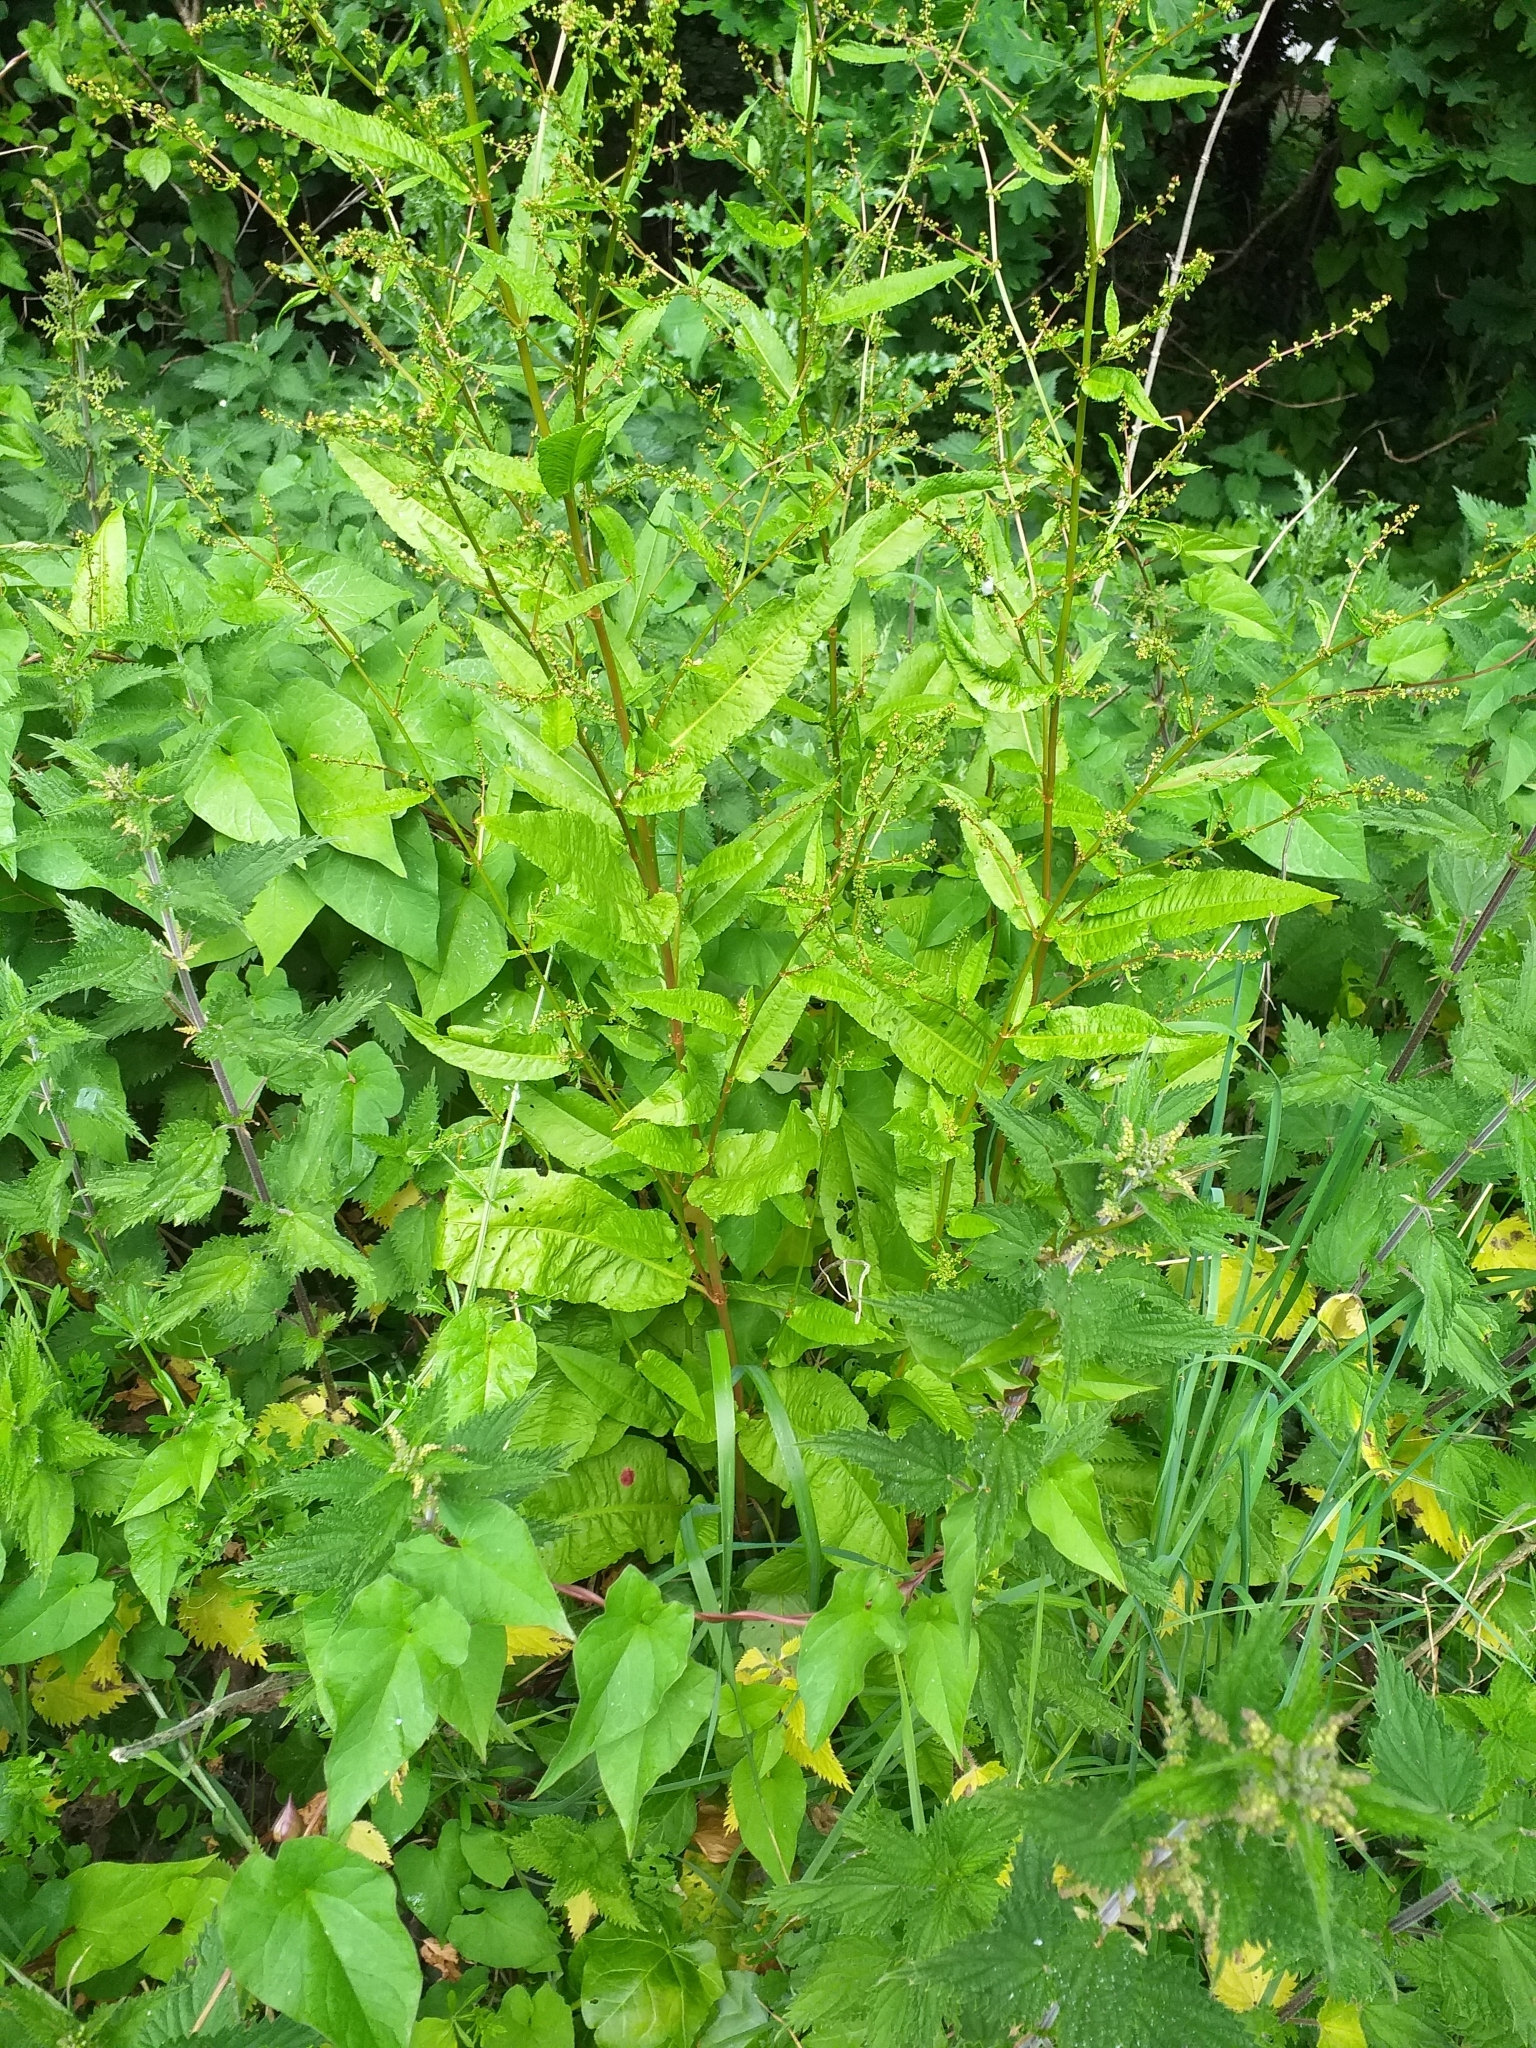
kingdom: Plantae
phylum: Tracheophyta
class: Magnoliopsida
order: Caryophyllales
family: Polygonaceae
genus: Rumex
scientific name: Rumex sanguineus
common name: Wood dock
